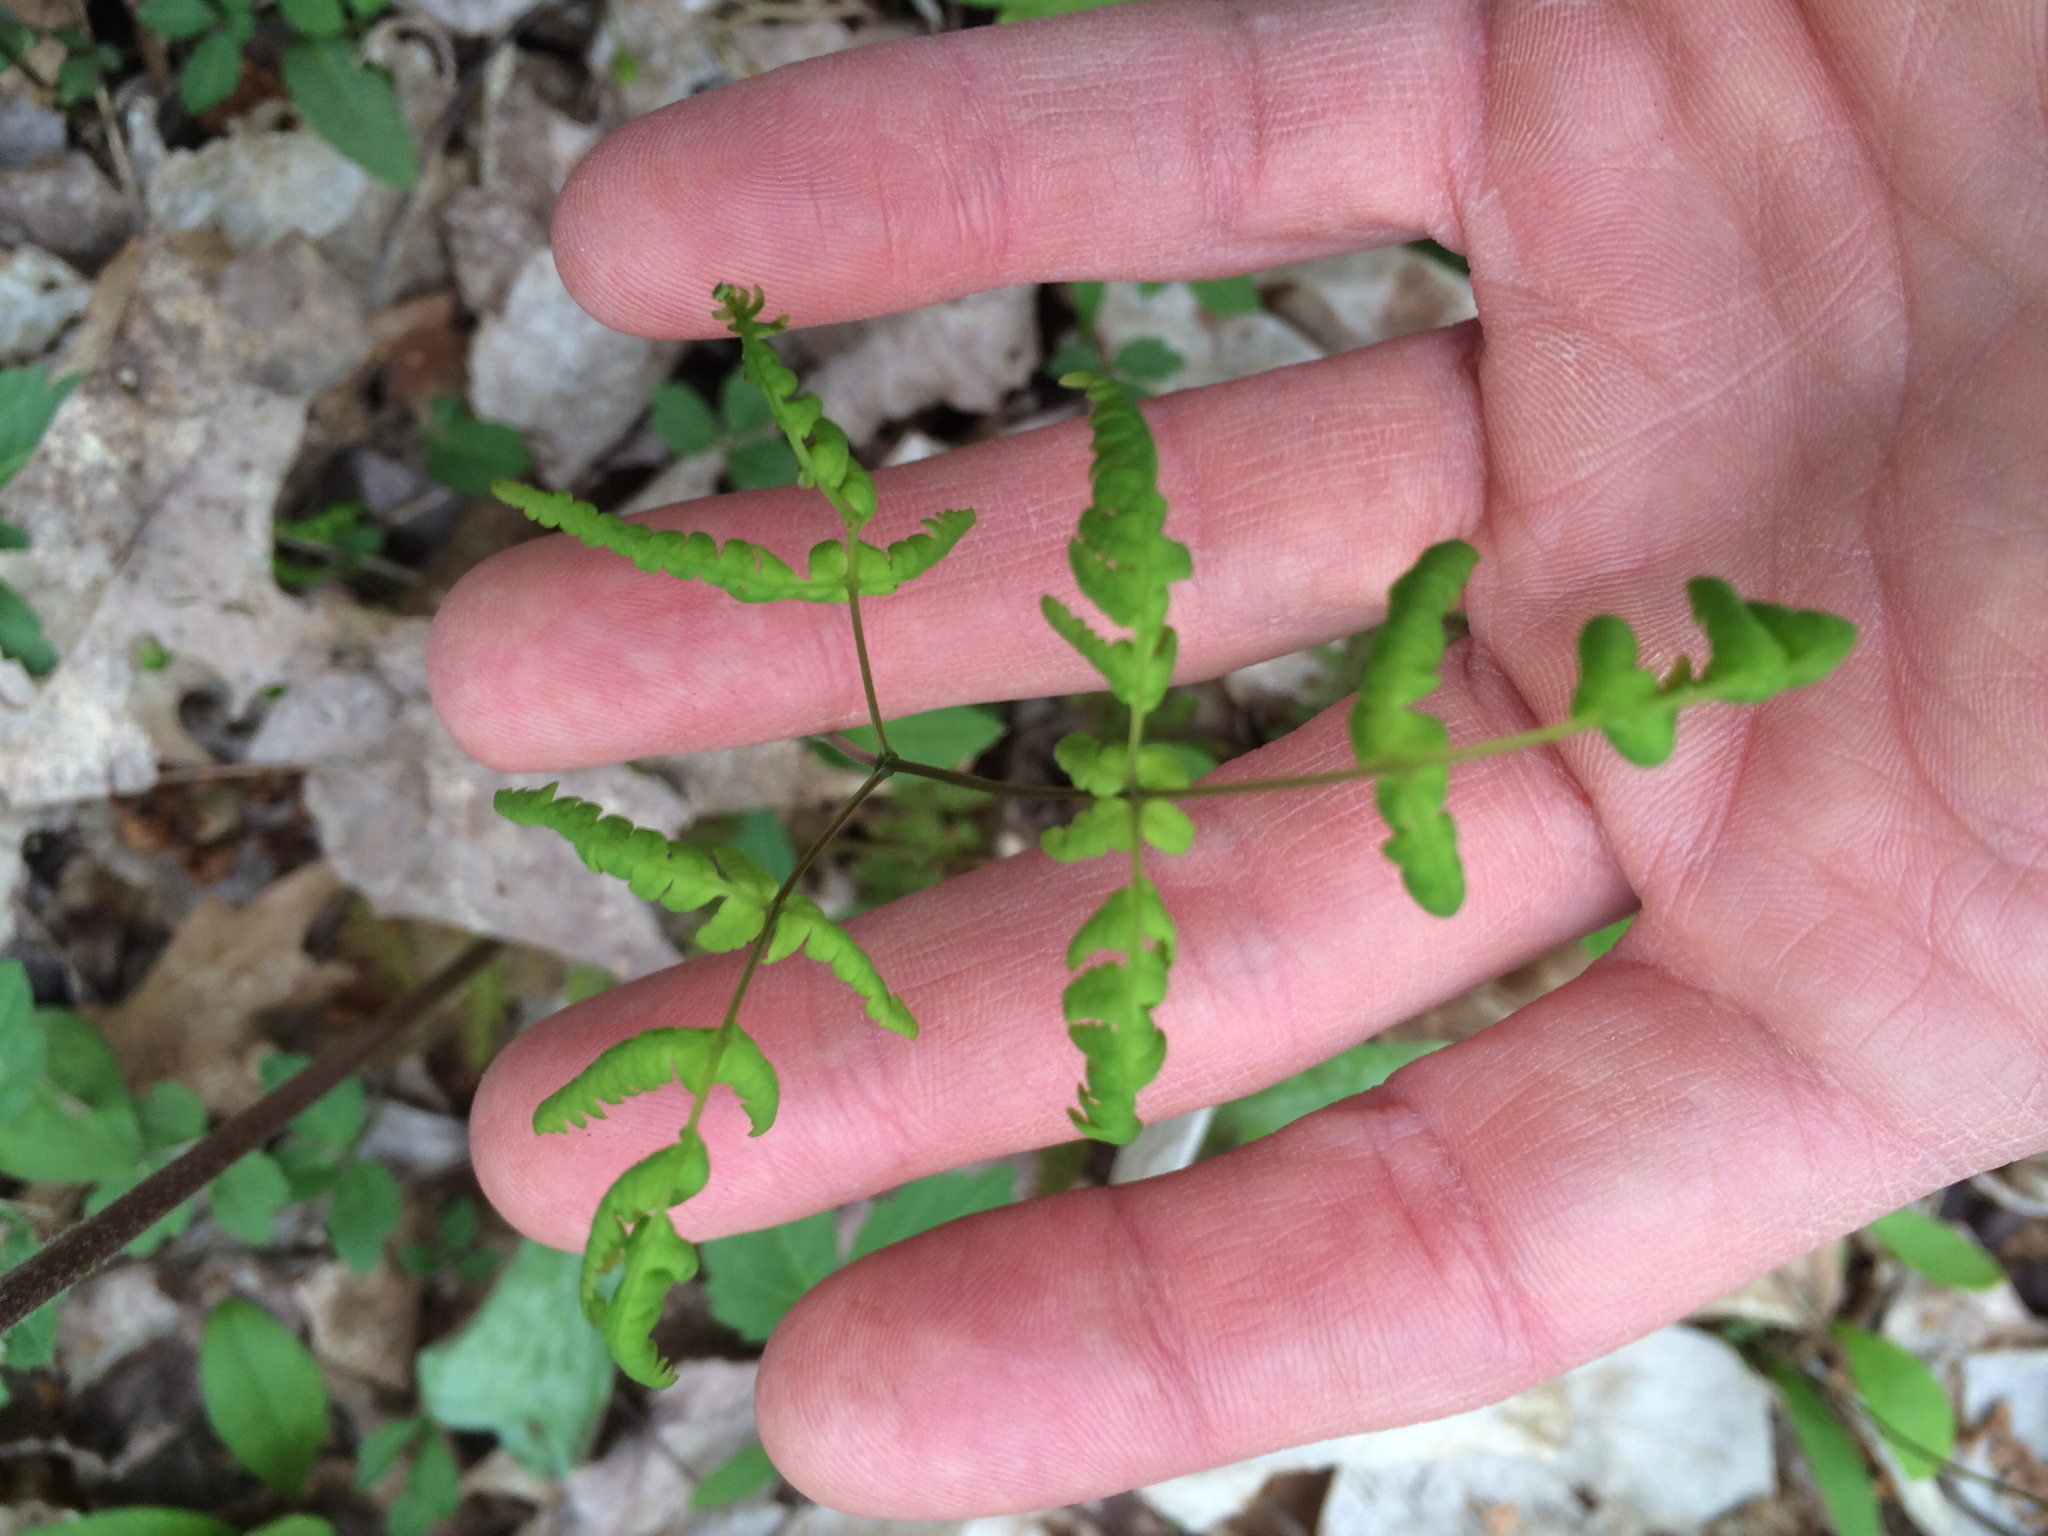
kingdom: Plantae
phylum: Tracheophyta
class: Polypodiopsida
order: Polypodiales
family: Cystopteridaceae
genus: Gymnocarpium
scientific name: Gymnocarpium dryopteris
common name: Oak fern
